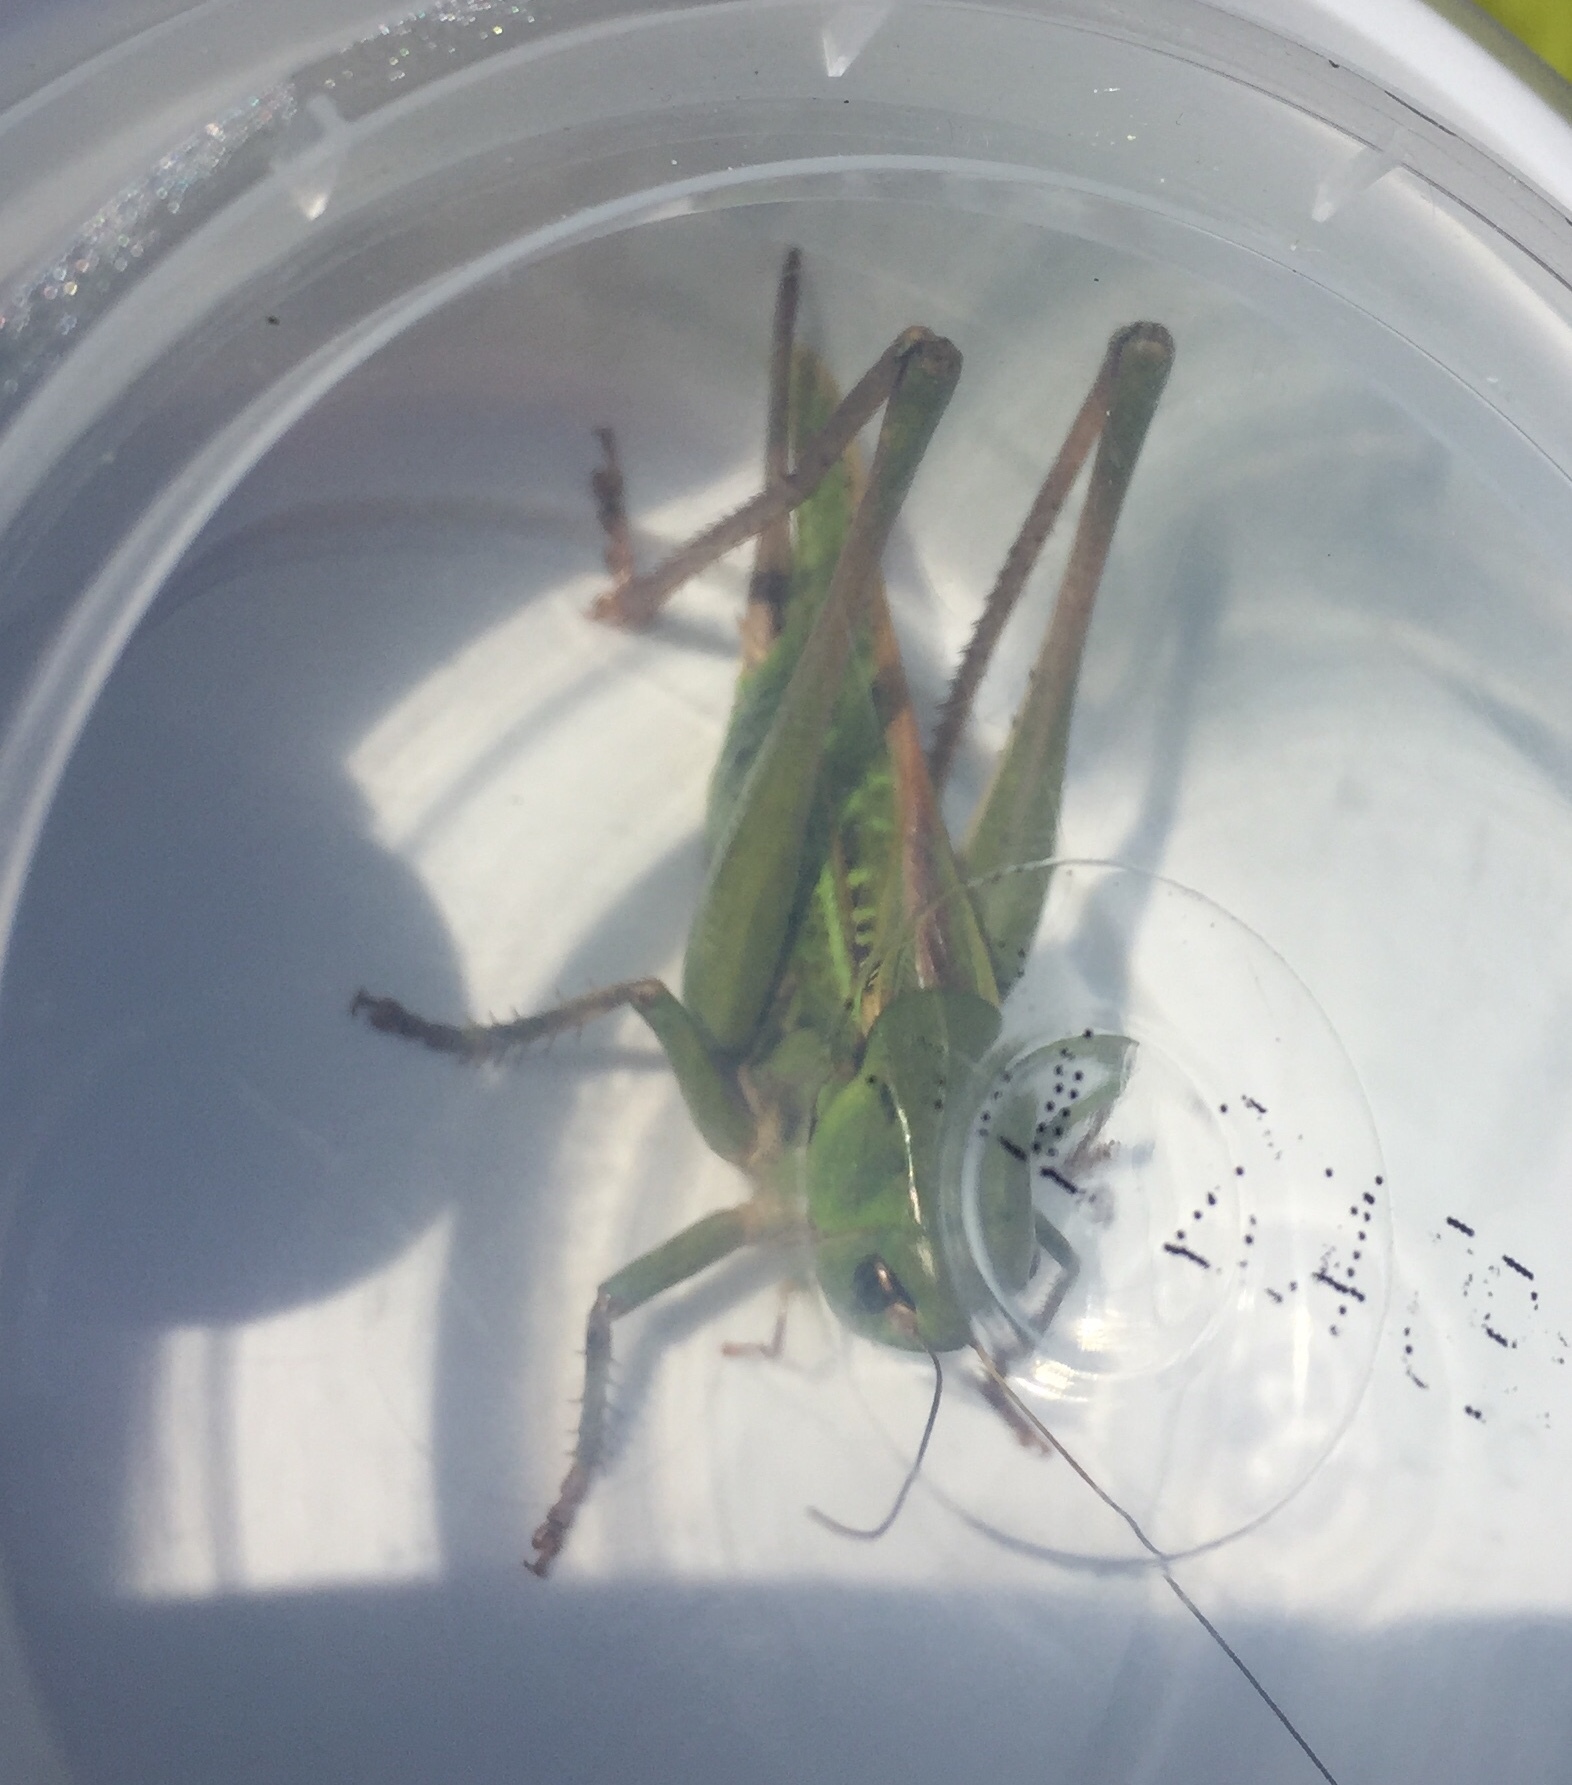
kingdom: Animalia
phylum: Arthropoda
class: Insecta
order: Orthoptera
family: Tettigoniidae
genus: Decticus
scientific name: Decticus verrucivorus
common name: Wart-biter
